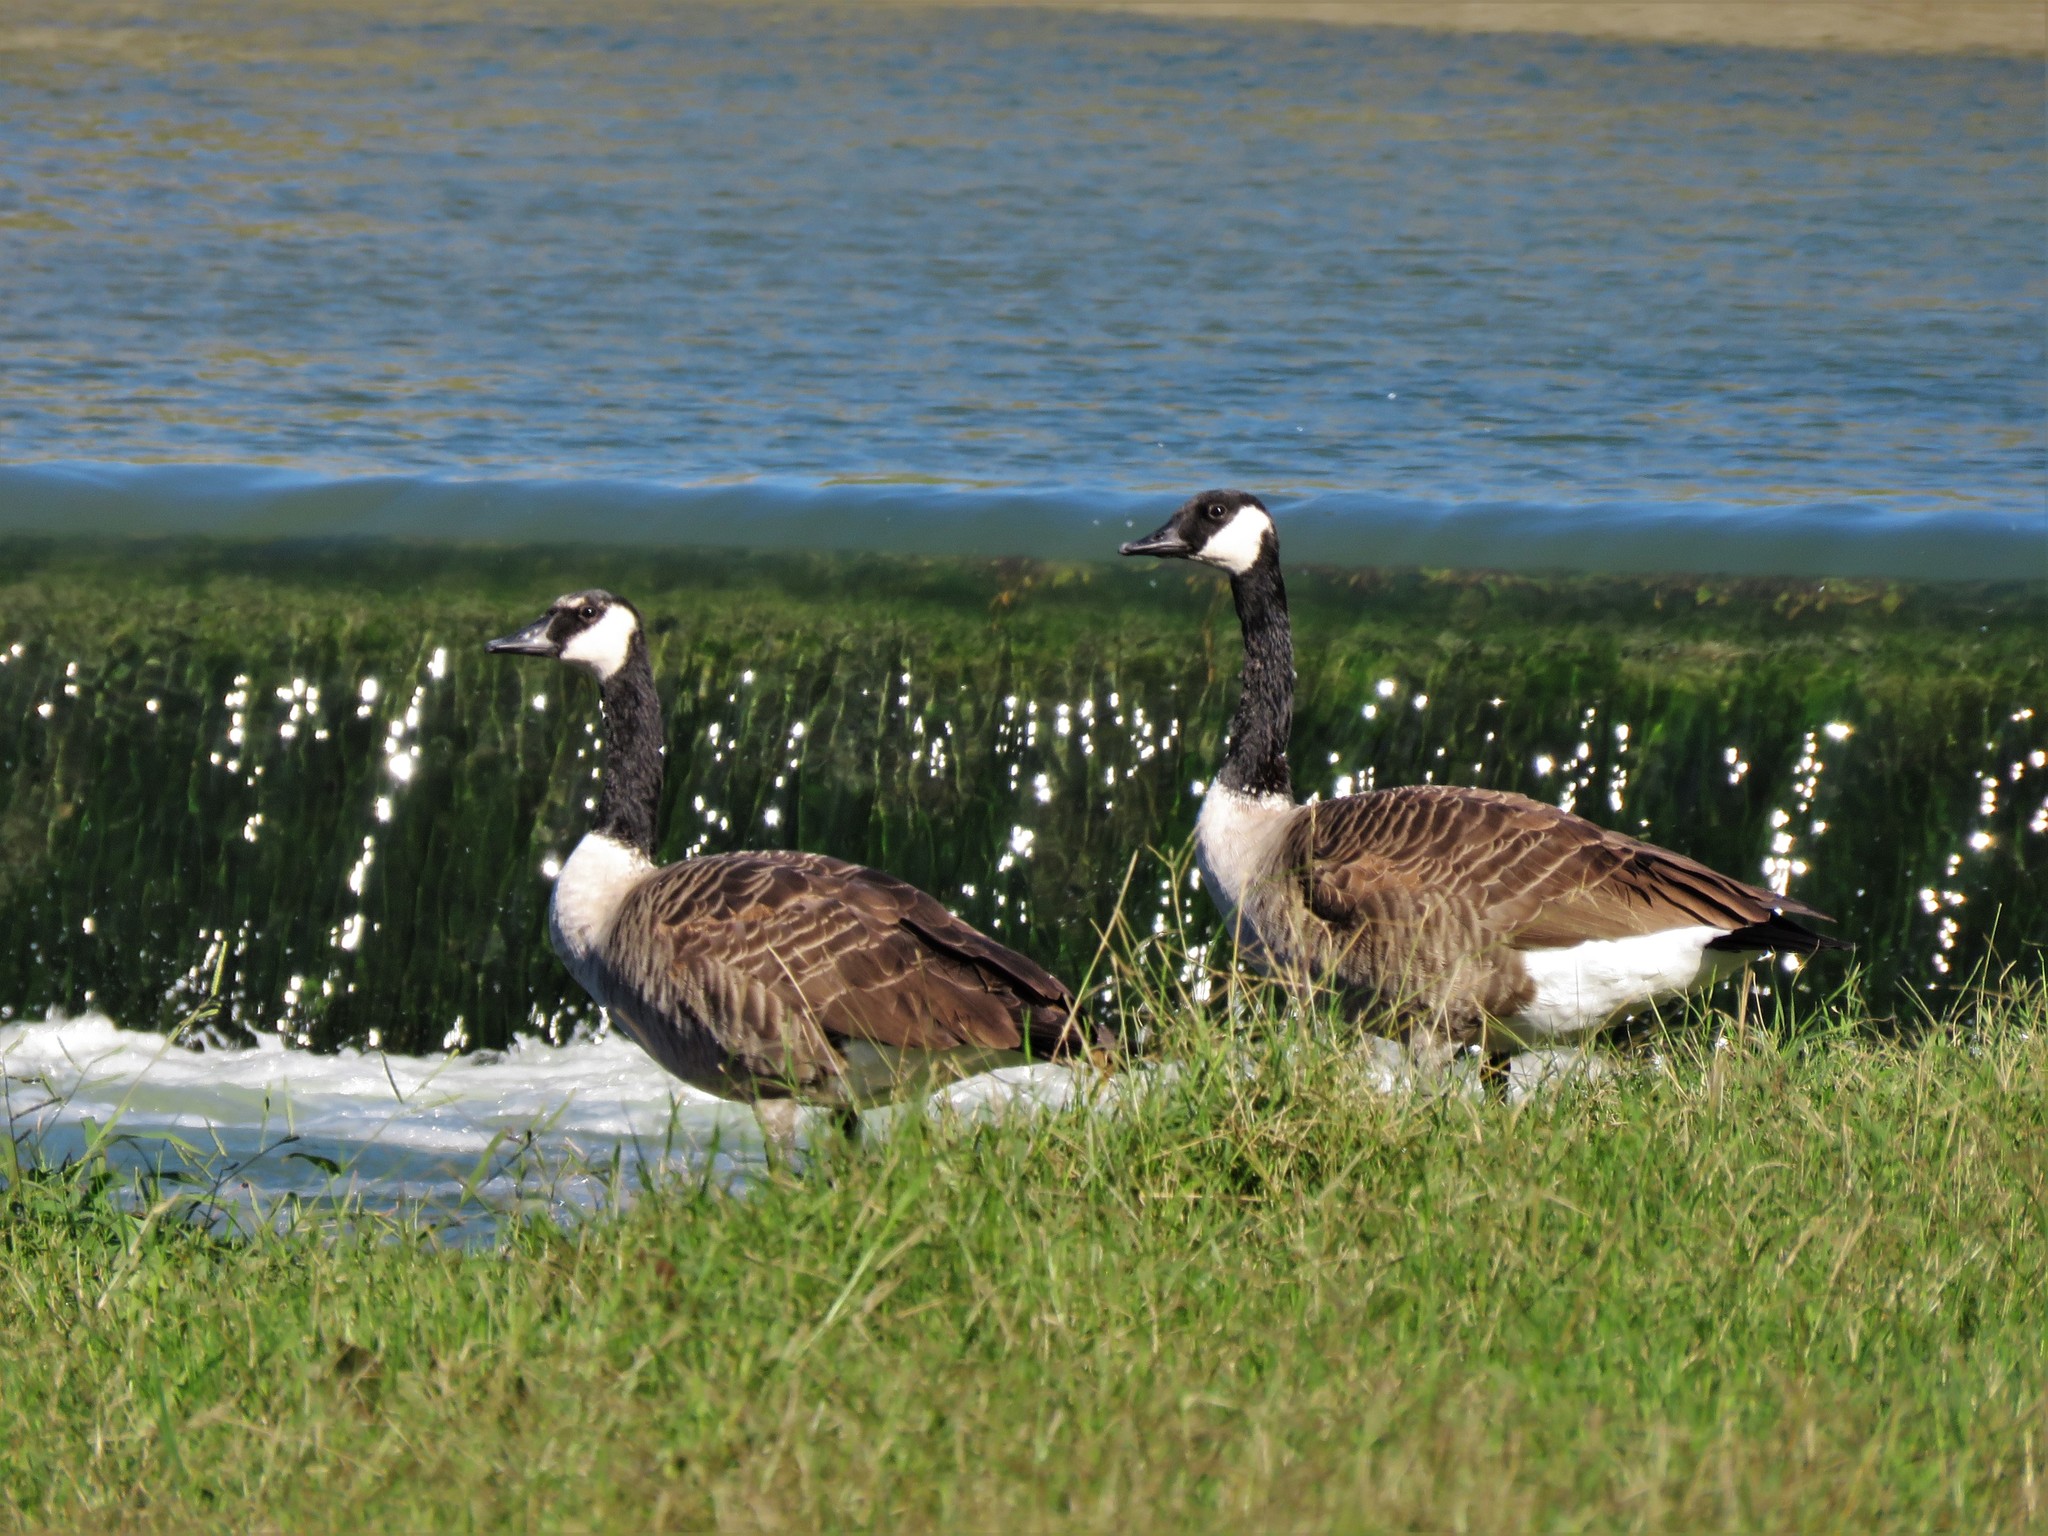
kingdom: Animalia
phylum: Chordata
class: Aves
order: Anseriformes
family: Anatidae
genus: Branta
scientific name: Branta canadensis
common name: Canada goose
